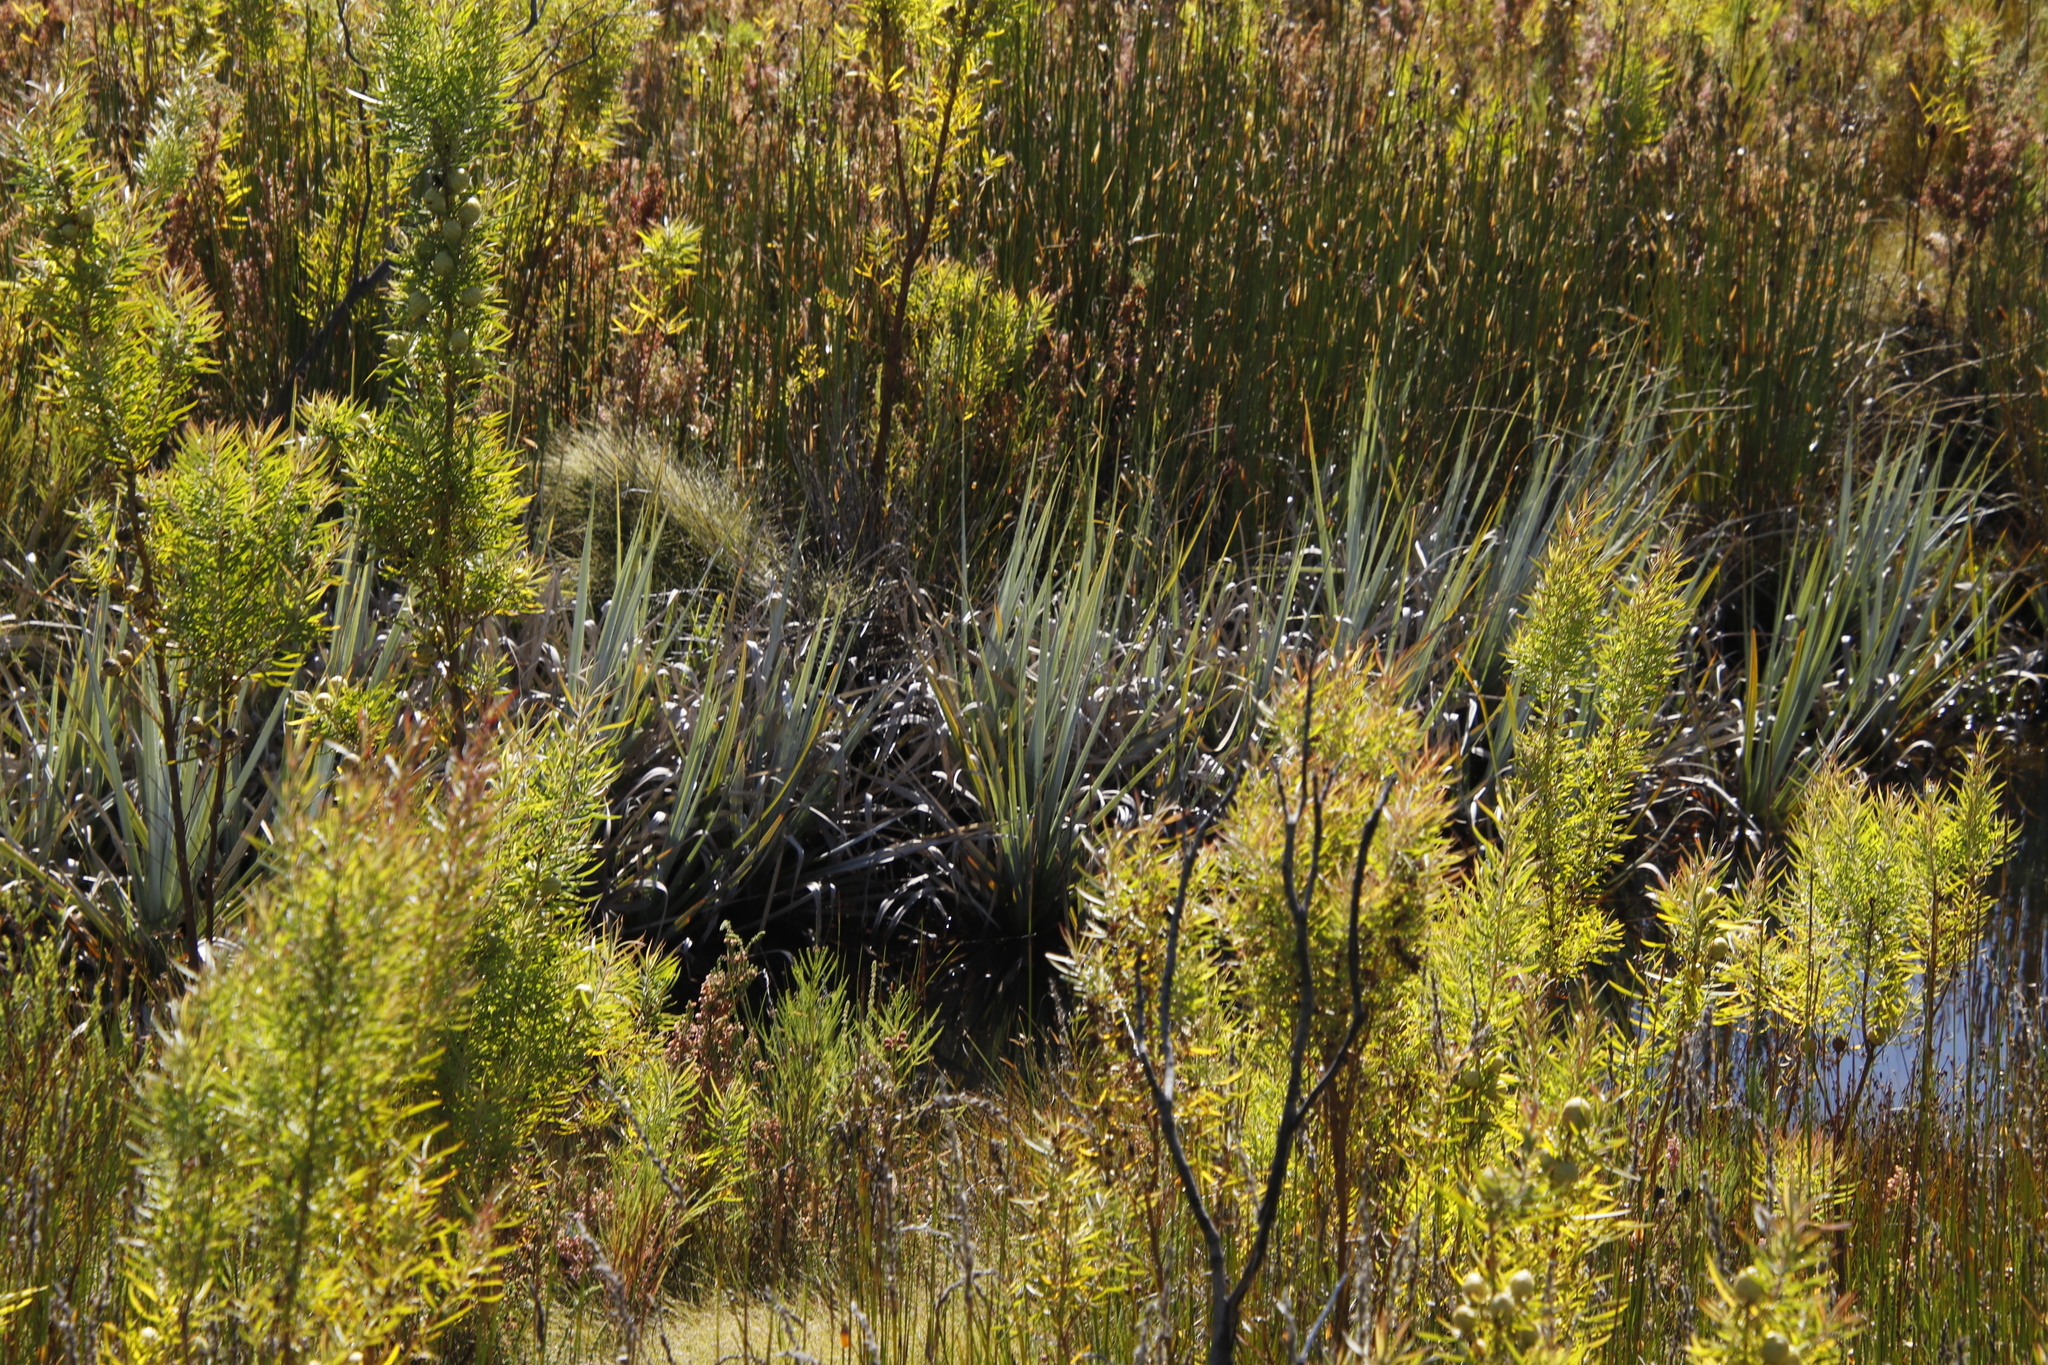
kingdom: Plantae
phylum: Tracheophyta
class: Magnoliopsida
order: Proteales
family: Proteaceae
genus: Leucadendron
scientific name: Leucadendron salicifolium
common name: Common stream conebush
